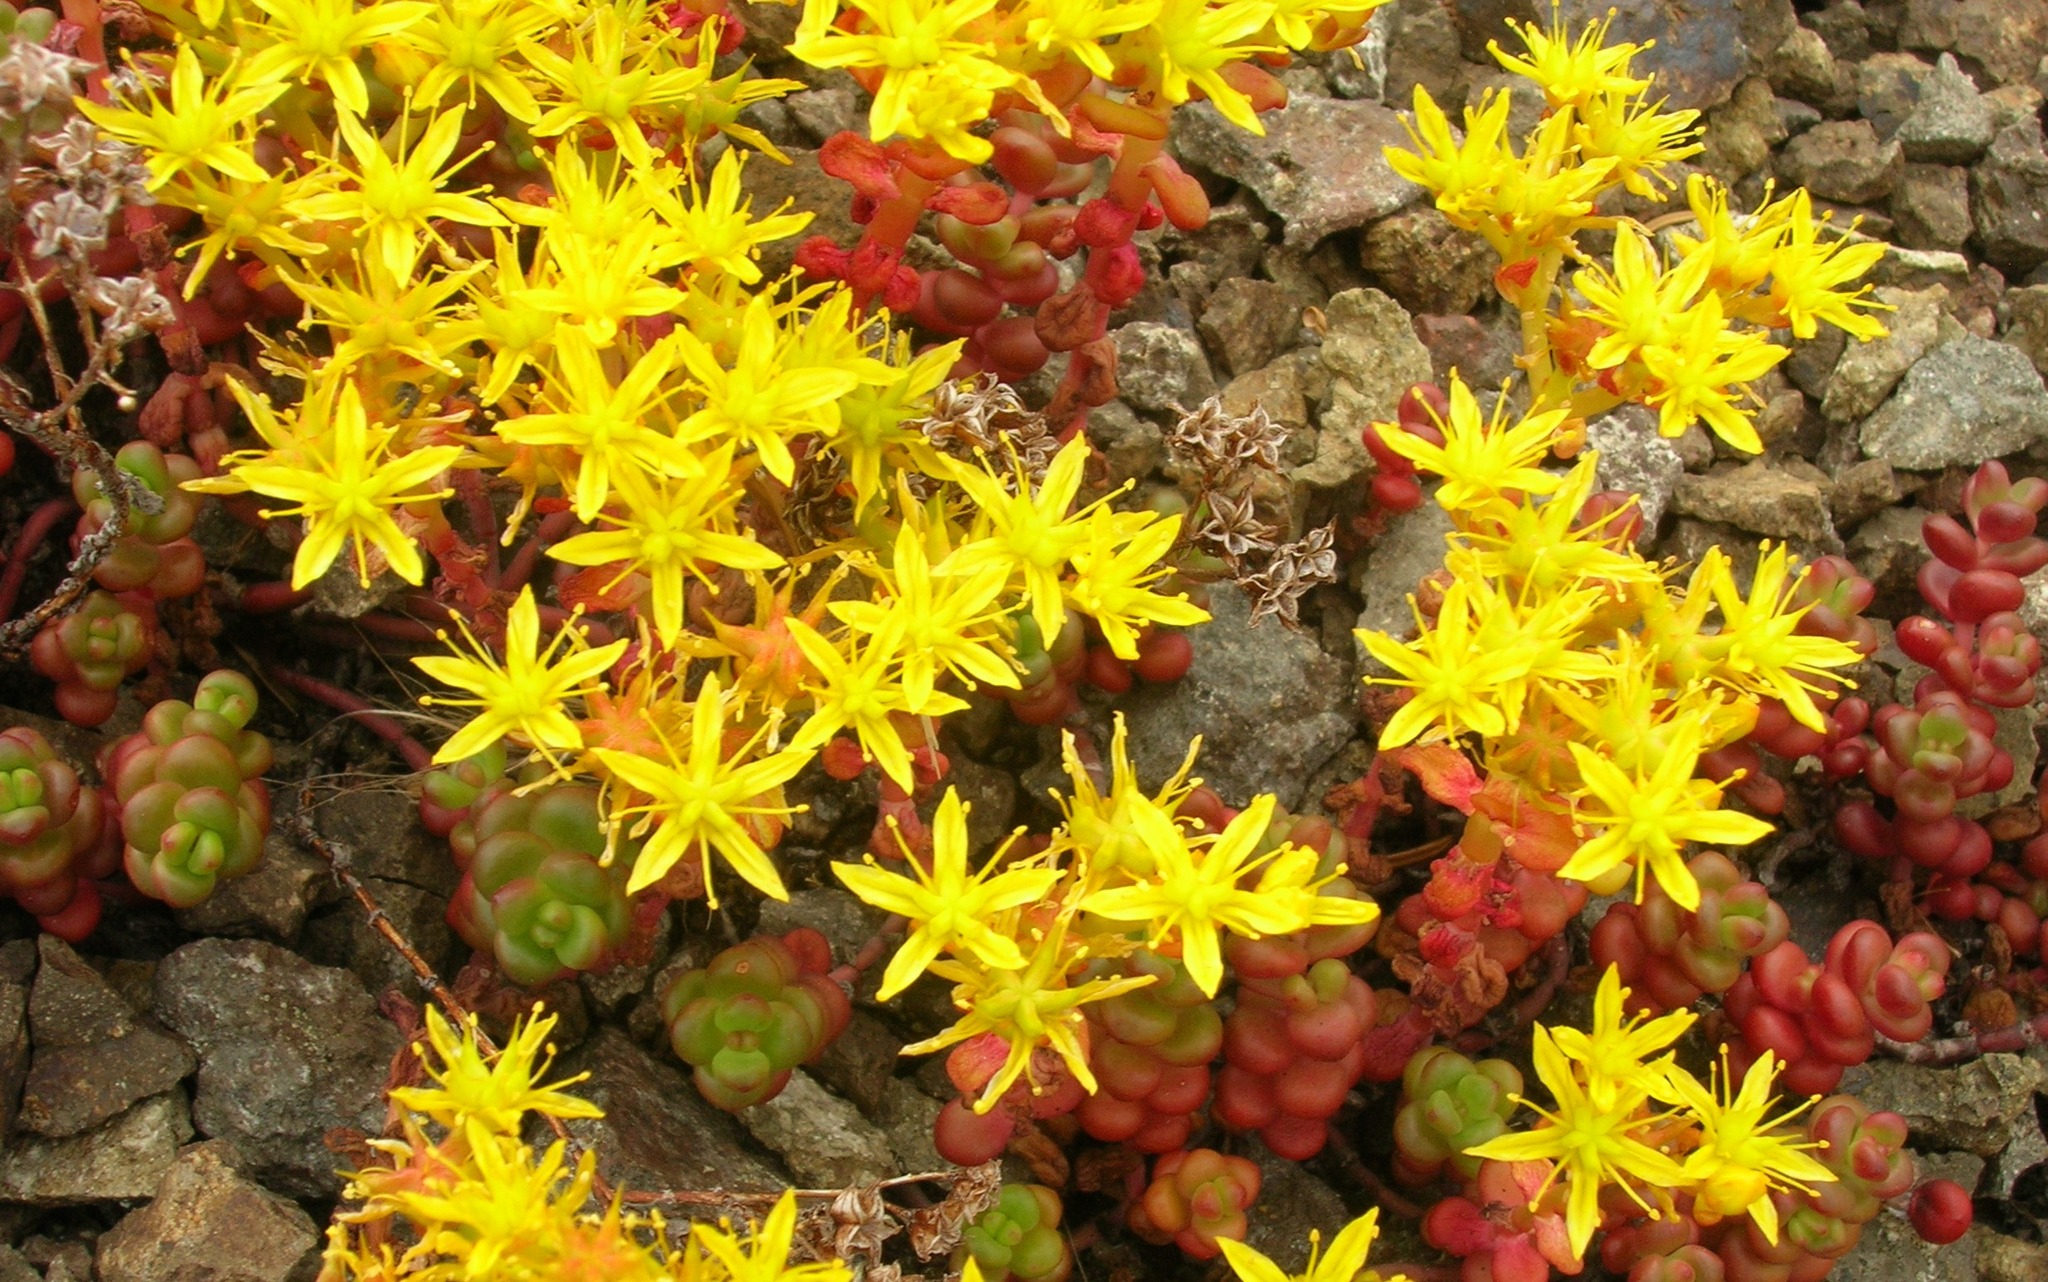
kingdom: Plantae
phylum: Tracheophyta
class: Magnoliopsida
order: Saxifragales
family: Crassulaceae
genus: Sedum
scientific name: Sedum divergens
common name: Cascade stonecrop
